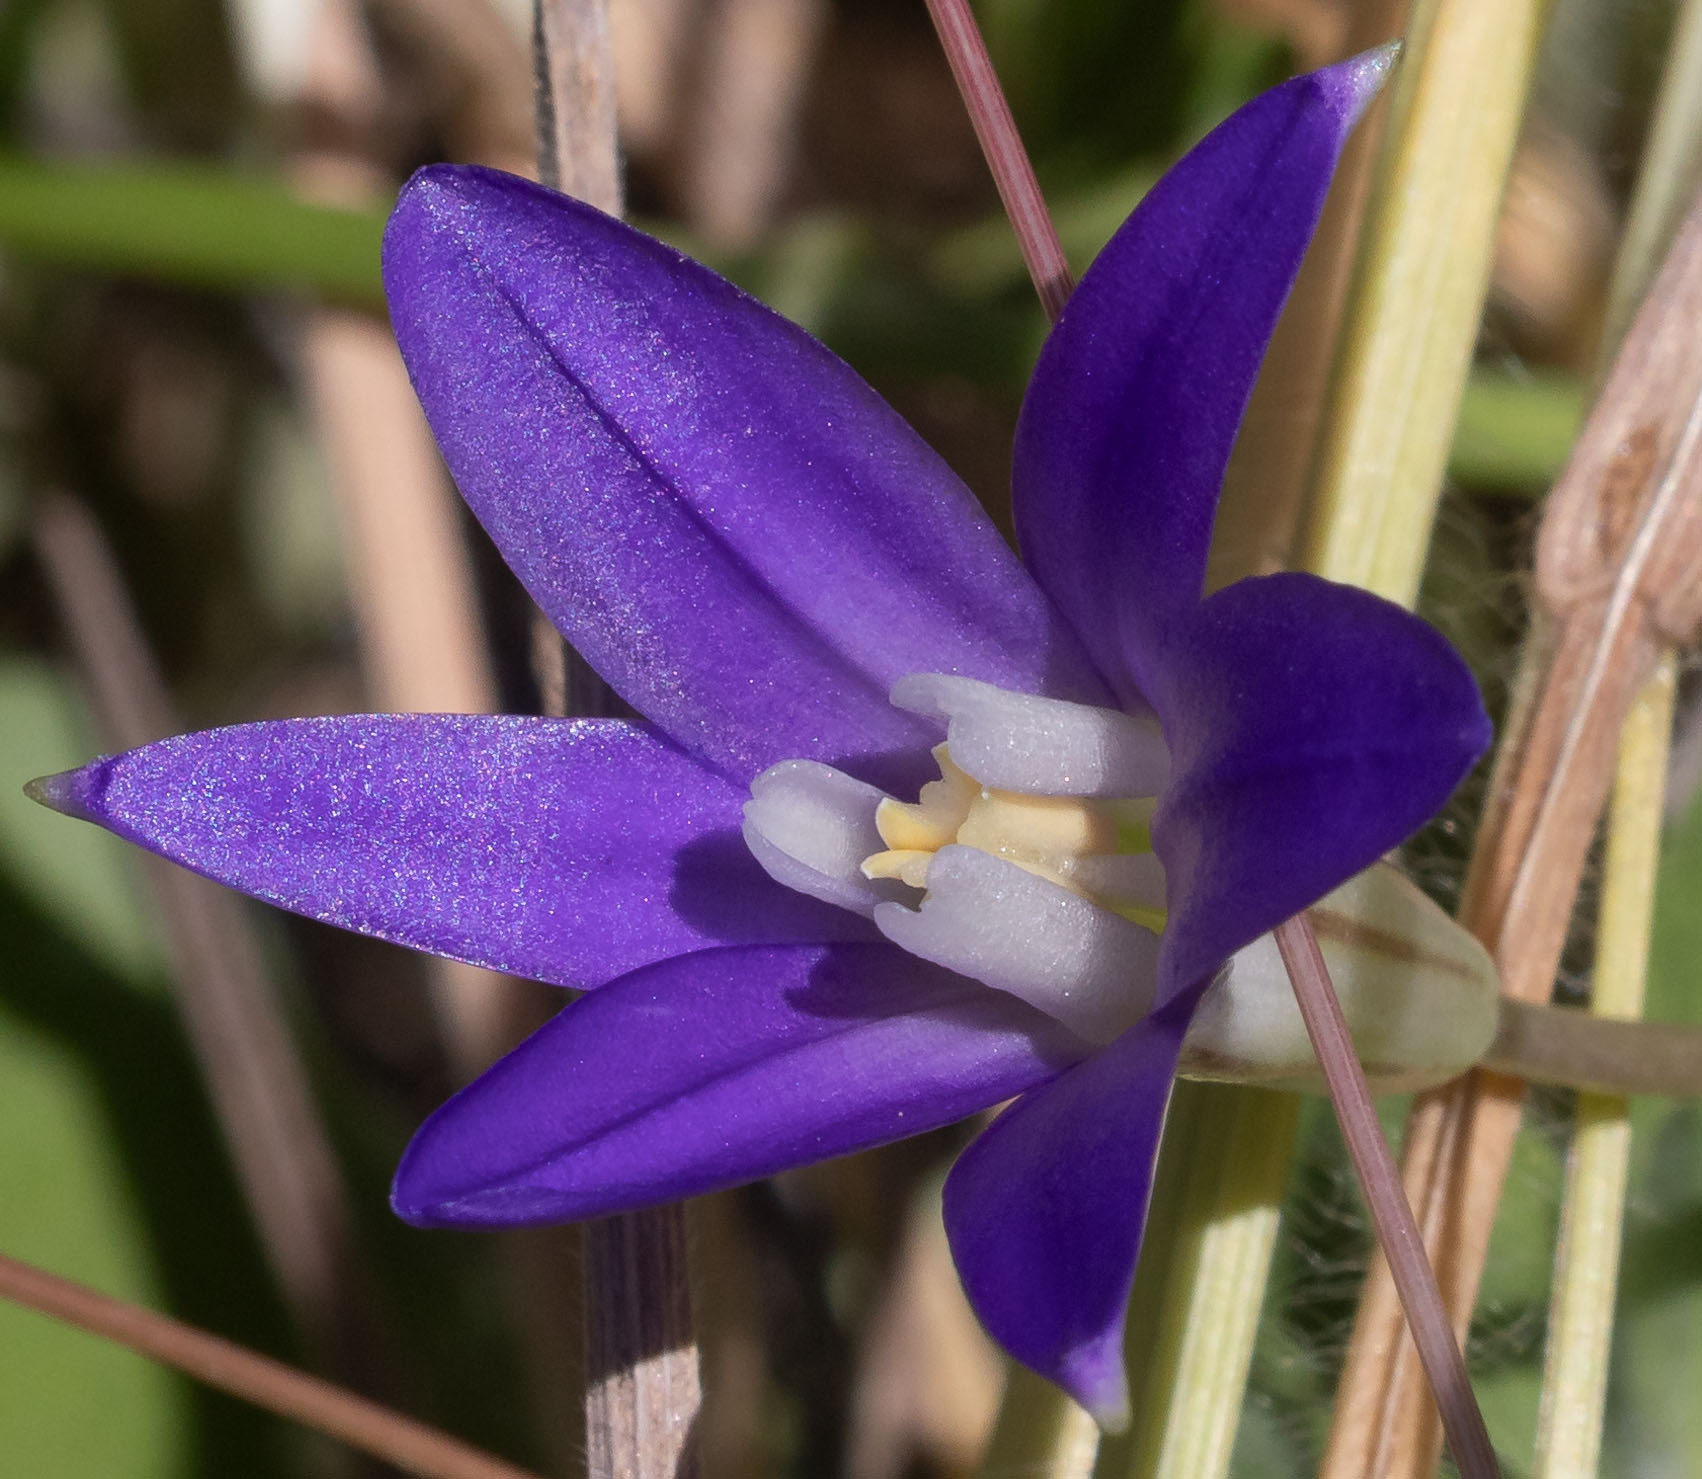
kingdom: Plantae
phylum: Tracheophyta
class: Liliopsida
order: Asparagales
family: Asparagaceae
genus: Brodiaea
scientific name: Brodiaea terrestris
